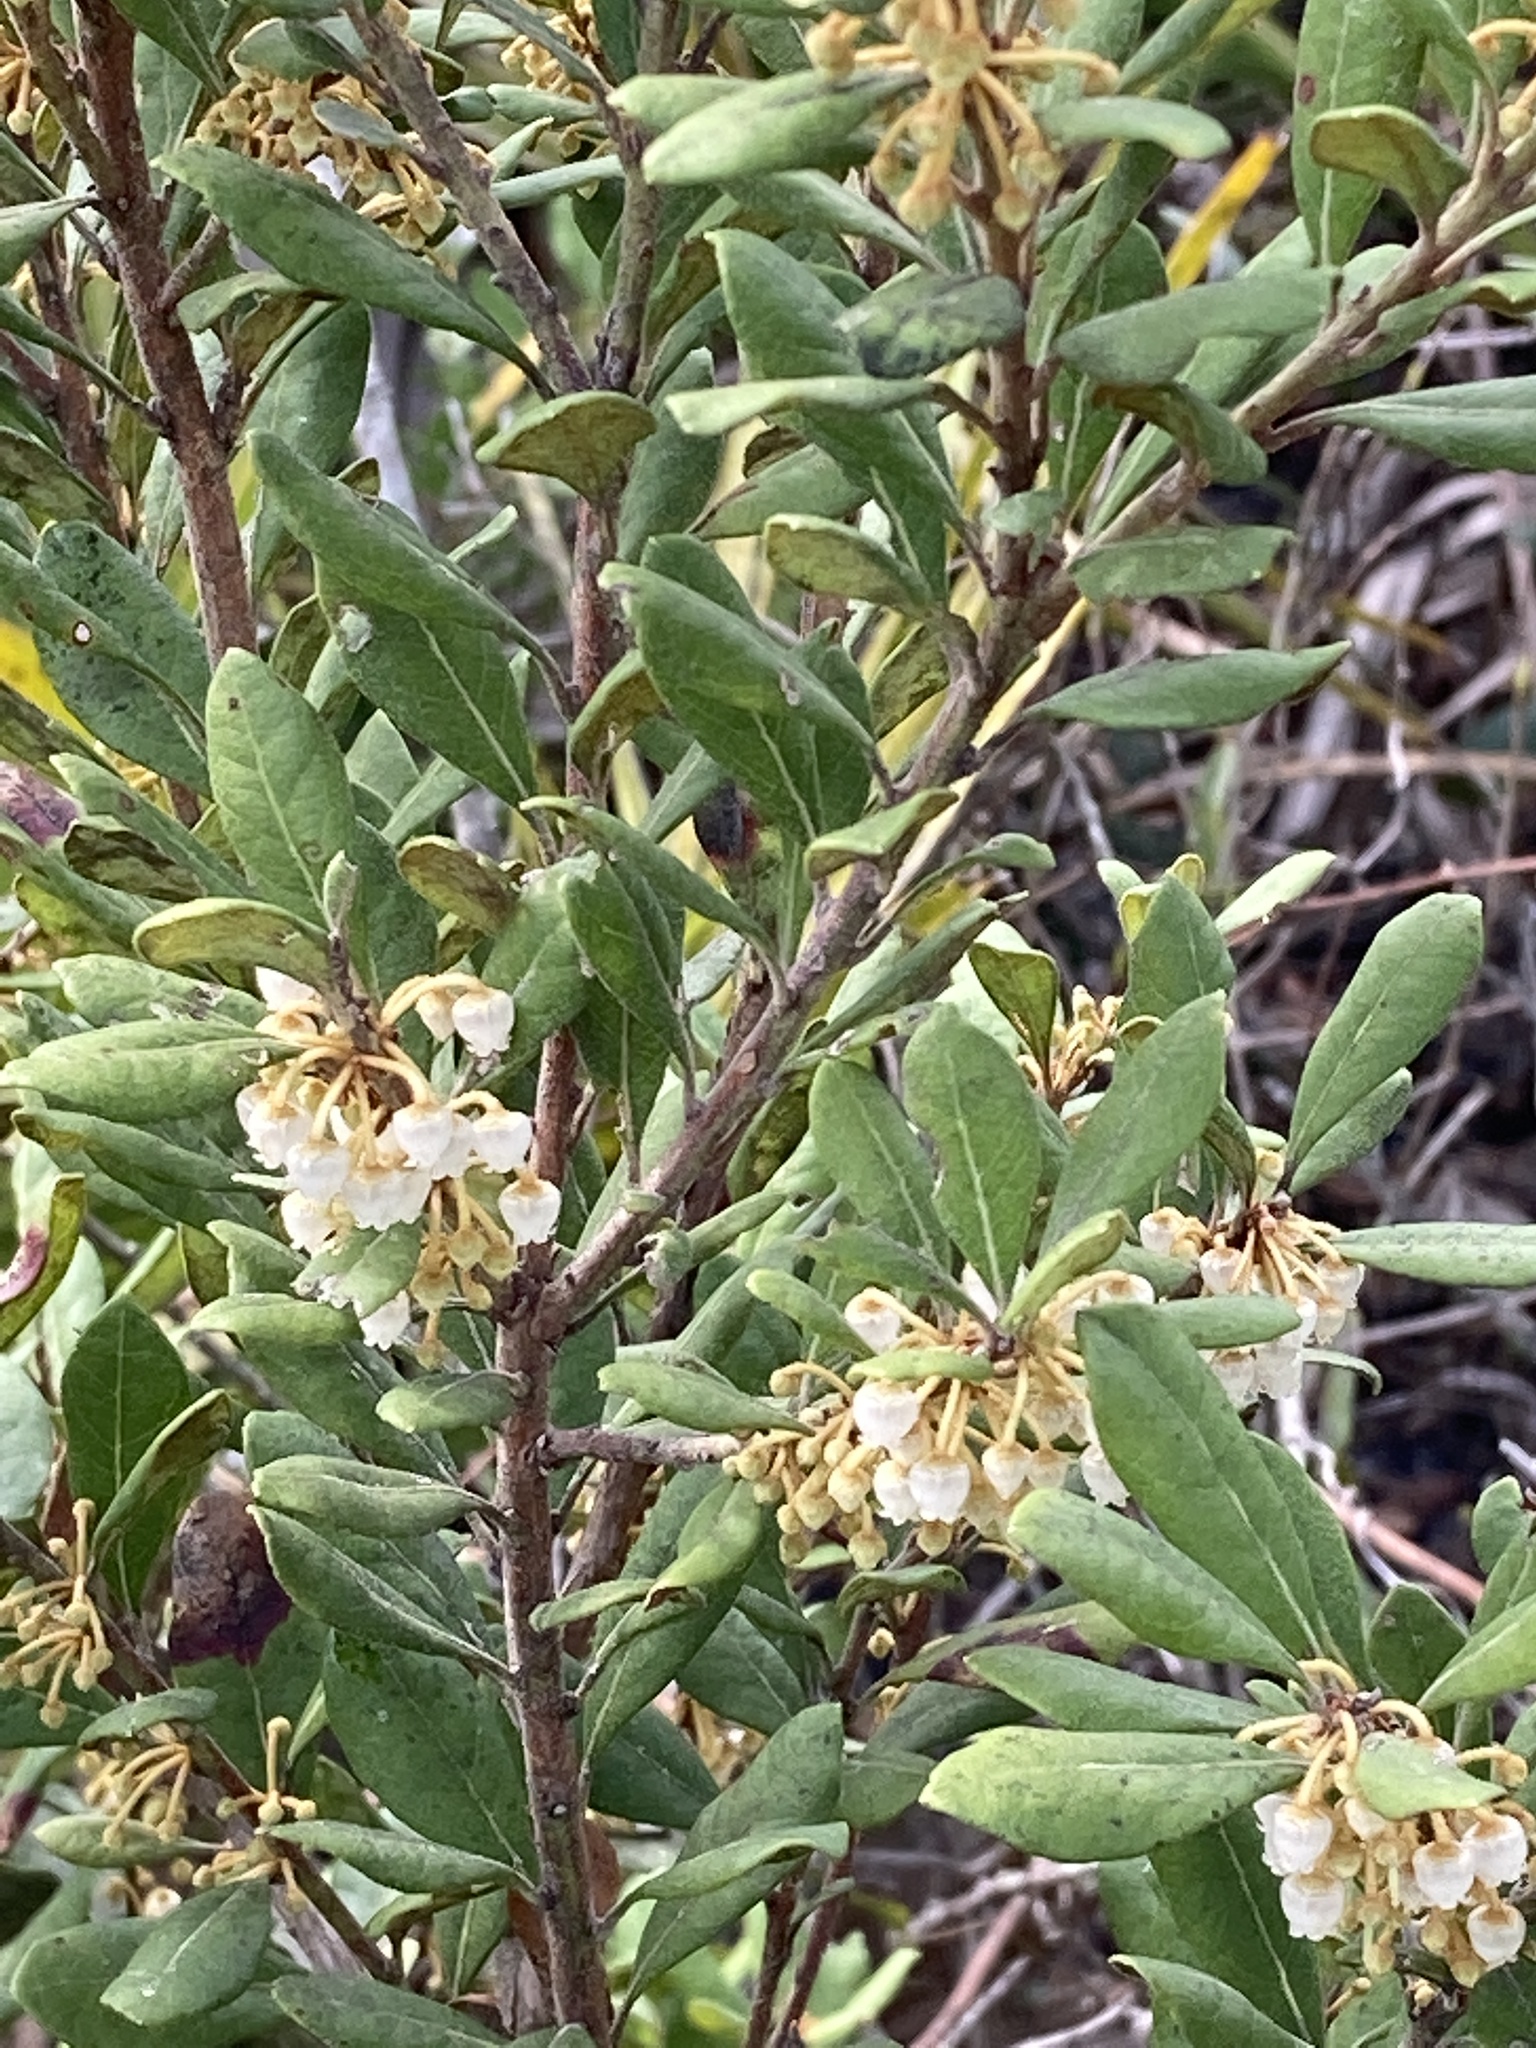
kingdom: Plantae
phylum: Tracheophyta
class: Magnoliopsida
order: Ericales
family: Ericaceae
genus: Lyonia
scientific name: Lyonia ferruginea
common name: Rusty lyonia
